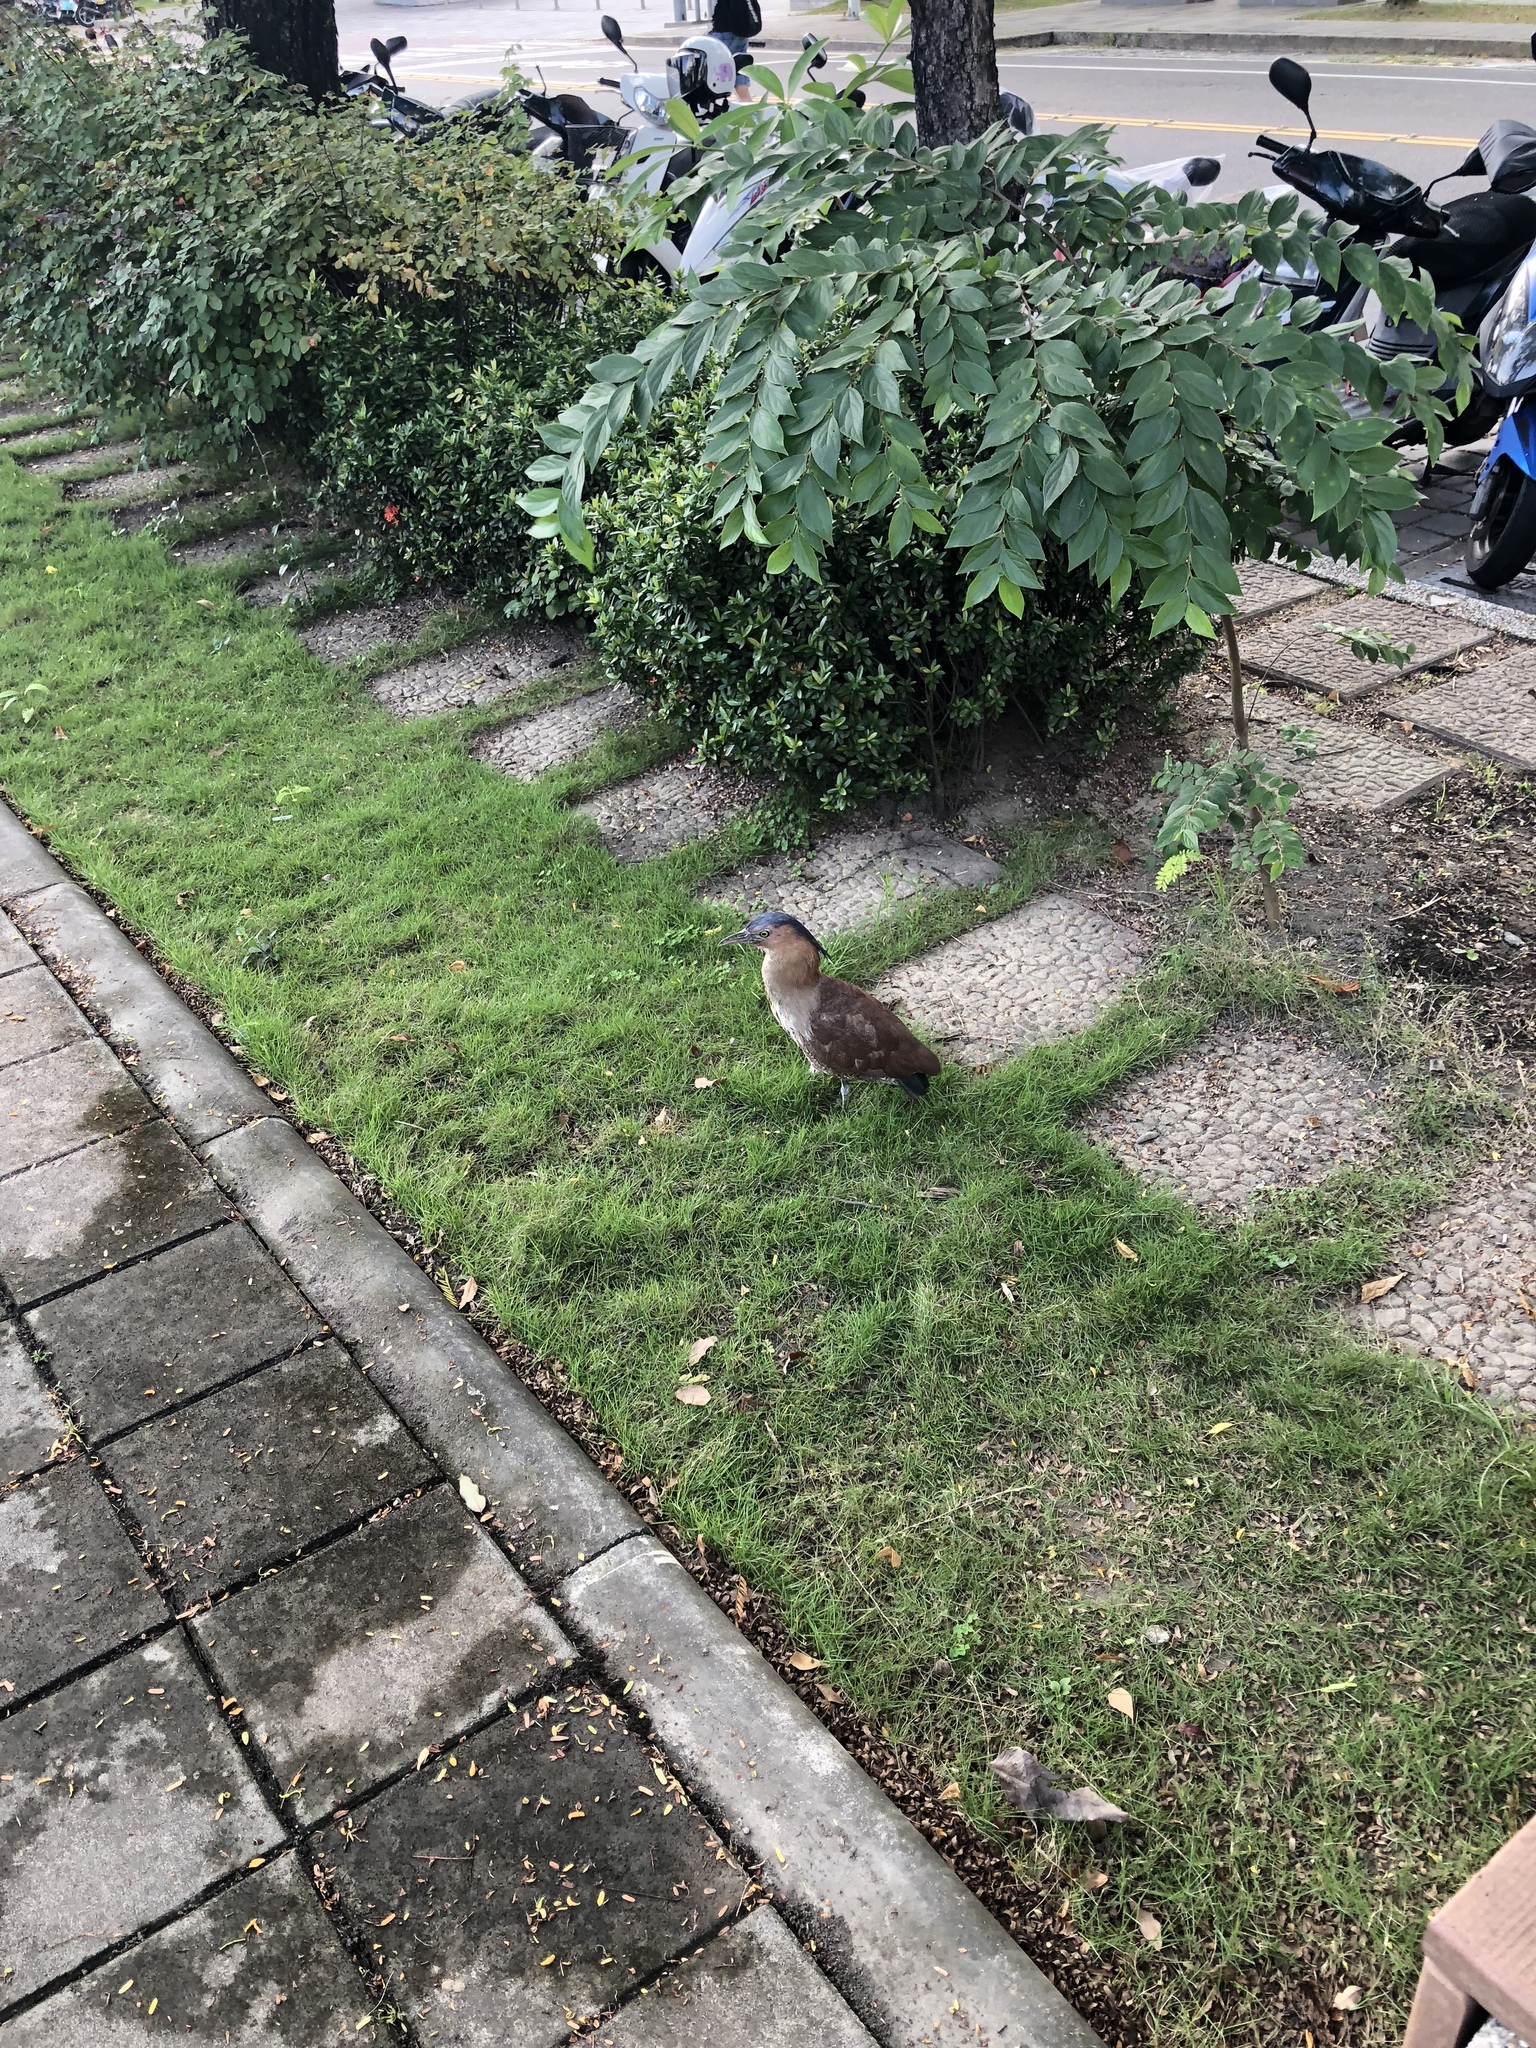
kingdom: Animalia
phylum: Chordata
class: Aves
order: Pelecaniformes
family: Ardeidae
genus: Gorsachius
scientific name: Gorsachius melanolophus
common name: Malayan night heron
